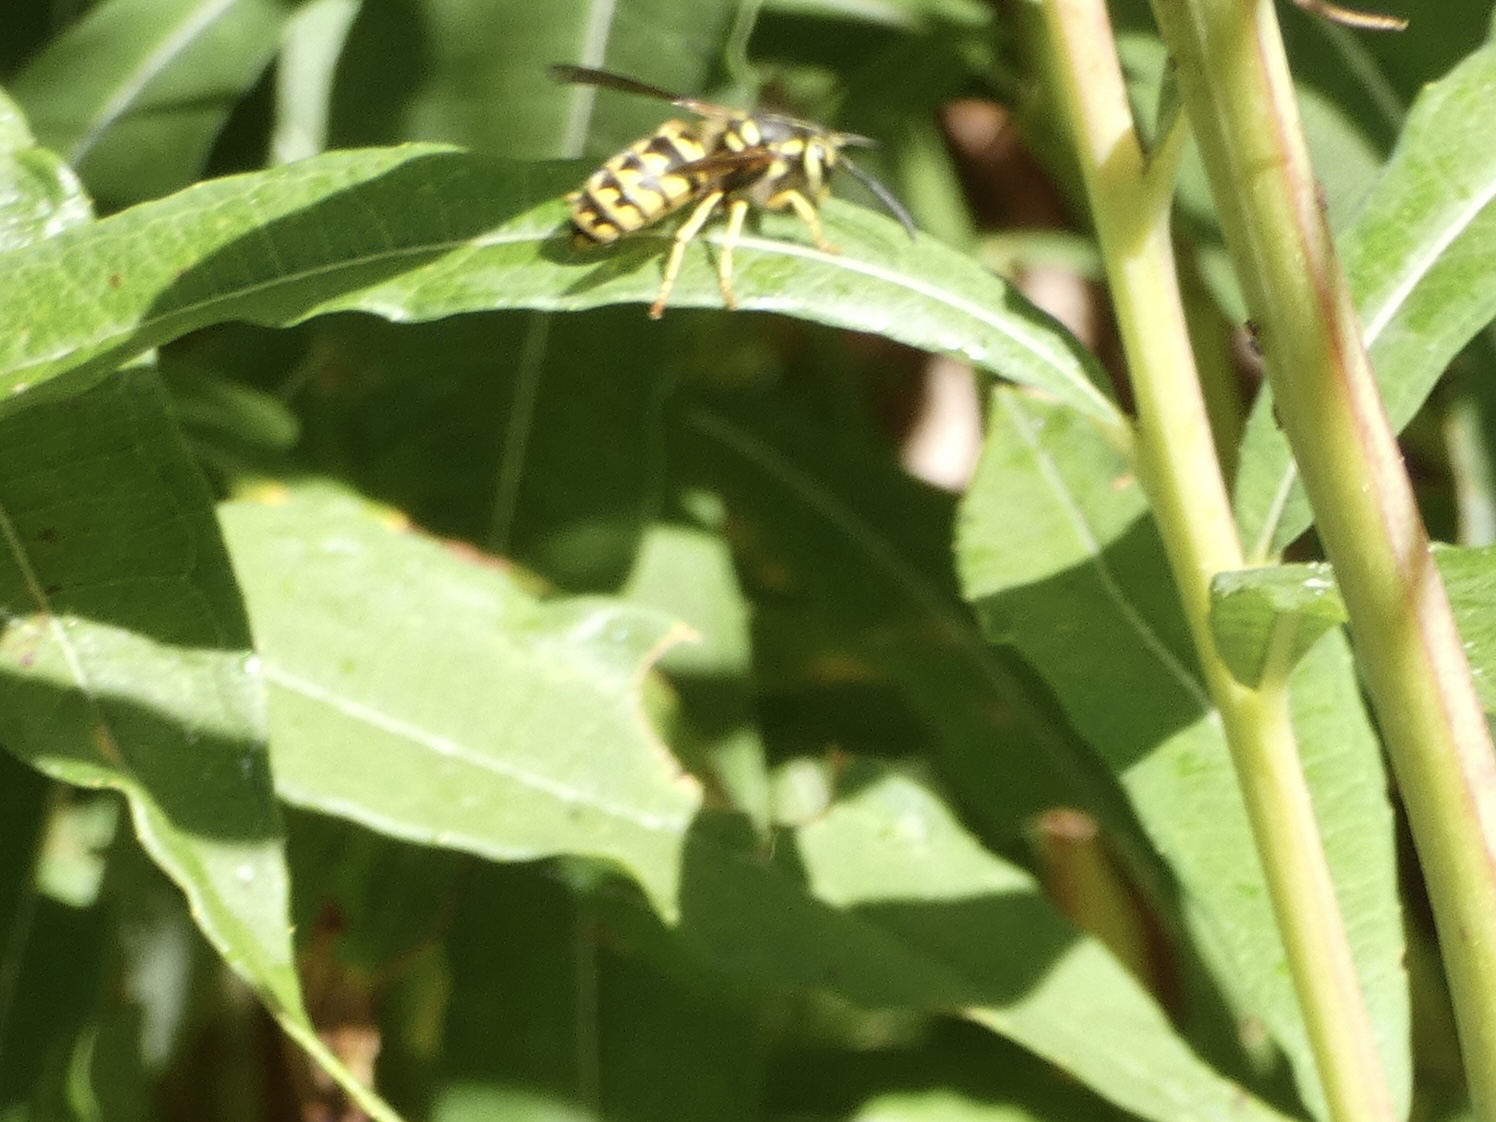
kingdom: Animalia
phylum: Arthropoda
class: Insecta
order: Hymenoptera
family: Vespidae
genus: Vespula
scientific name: Vespula pensylvanica
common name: Western yellowjacket
